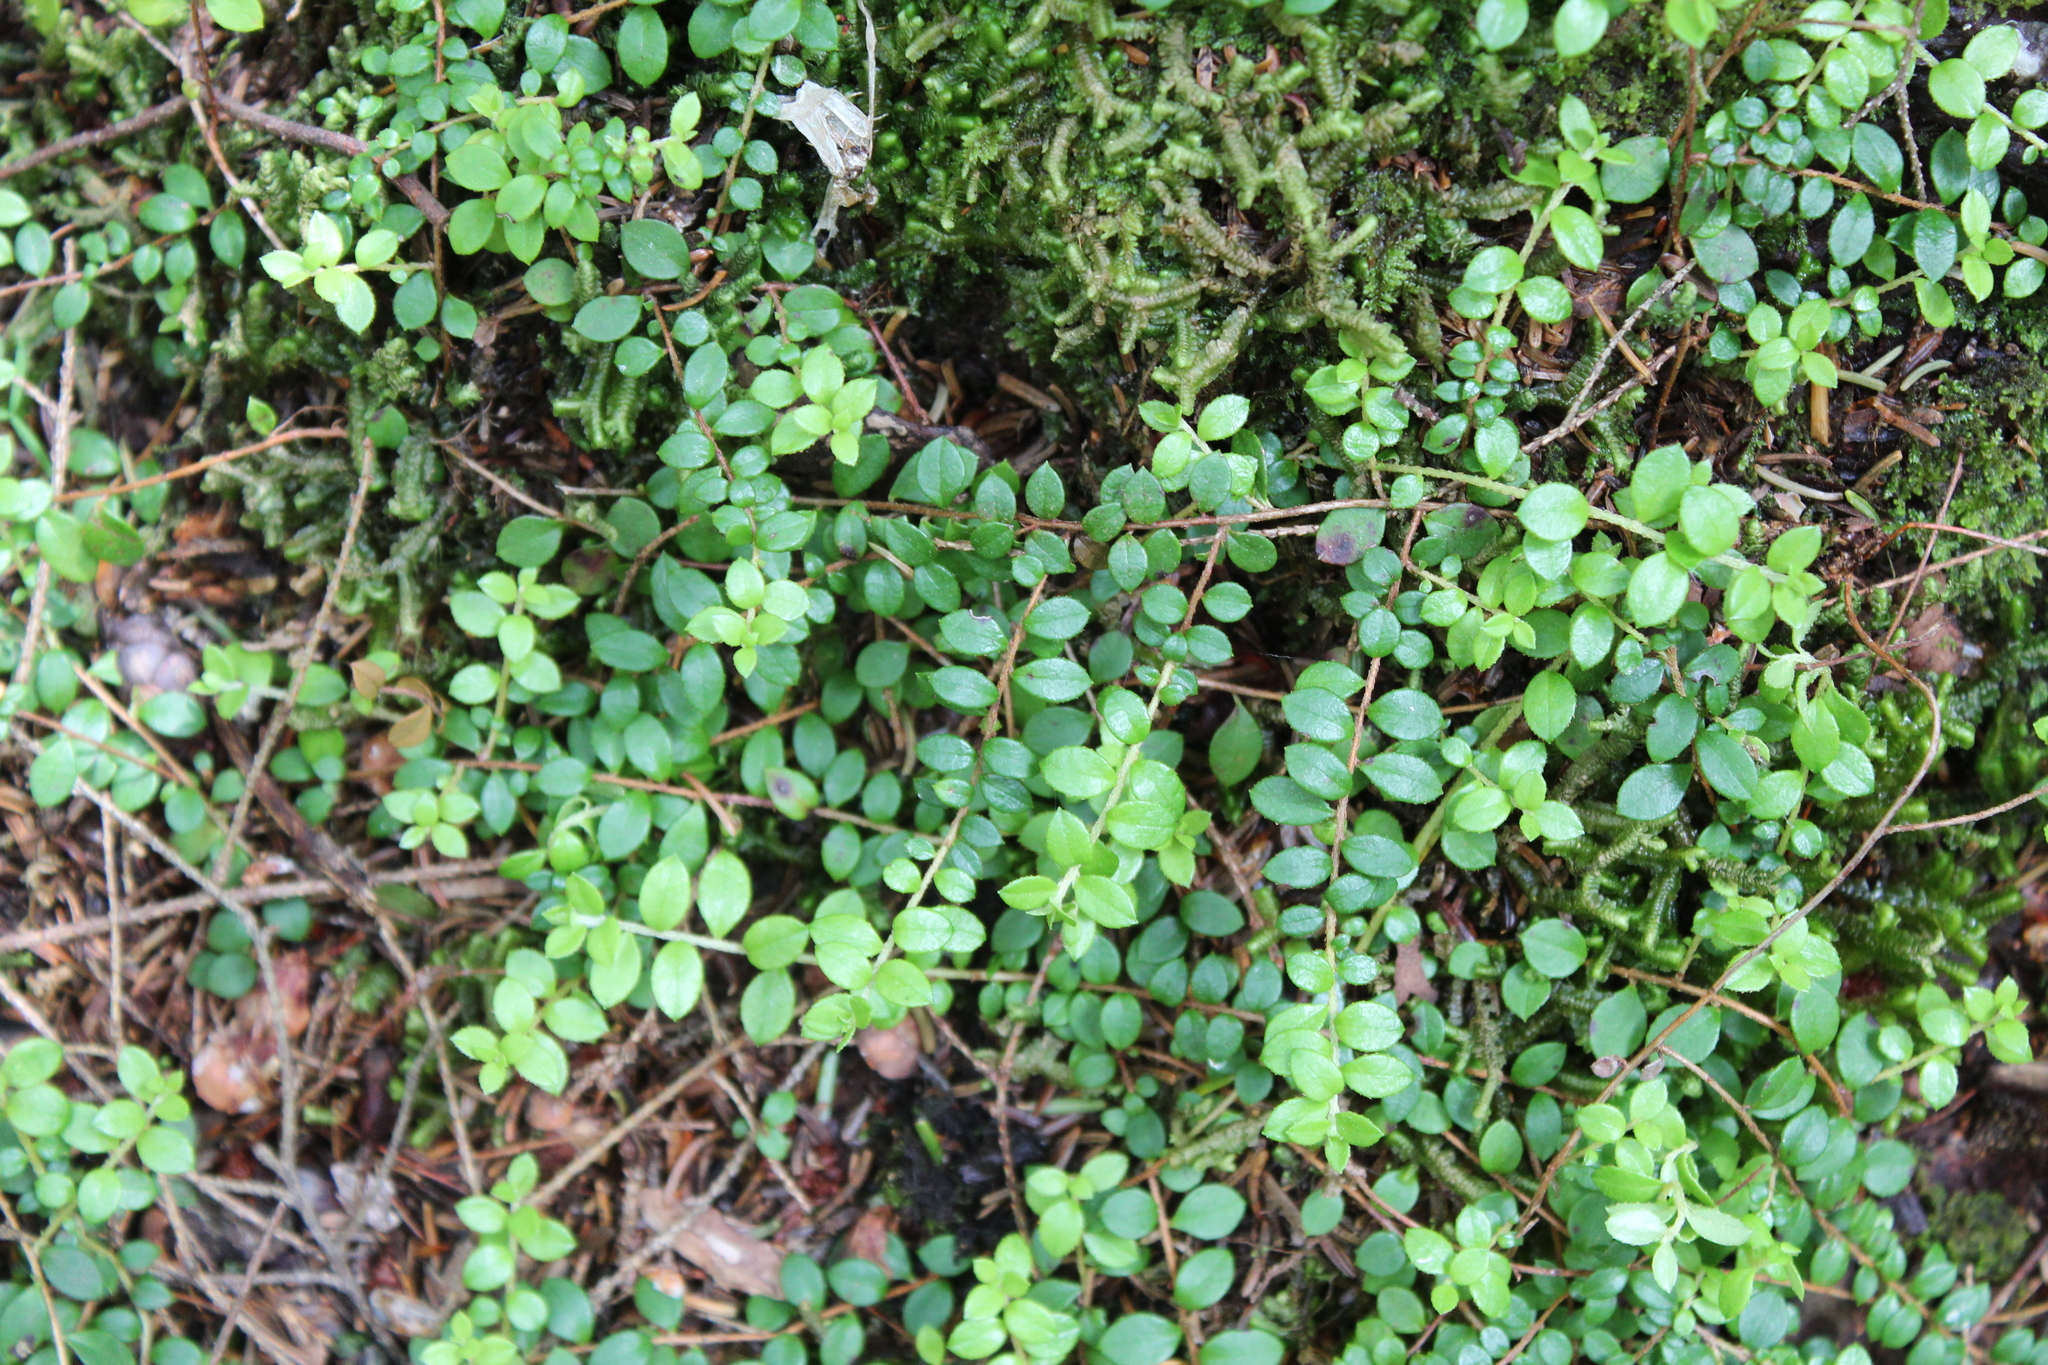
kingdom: Plantae
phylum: Tracheophyta
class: Magnoliopsida
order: Ericales
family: Ericaceae
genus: Gaultheria
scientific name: Gaultheria hispidula
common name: Cancer wintergreen
